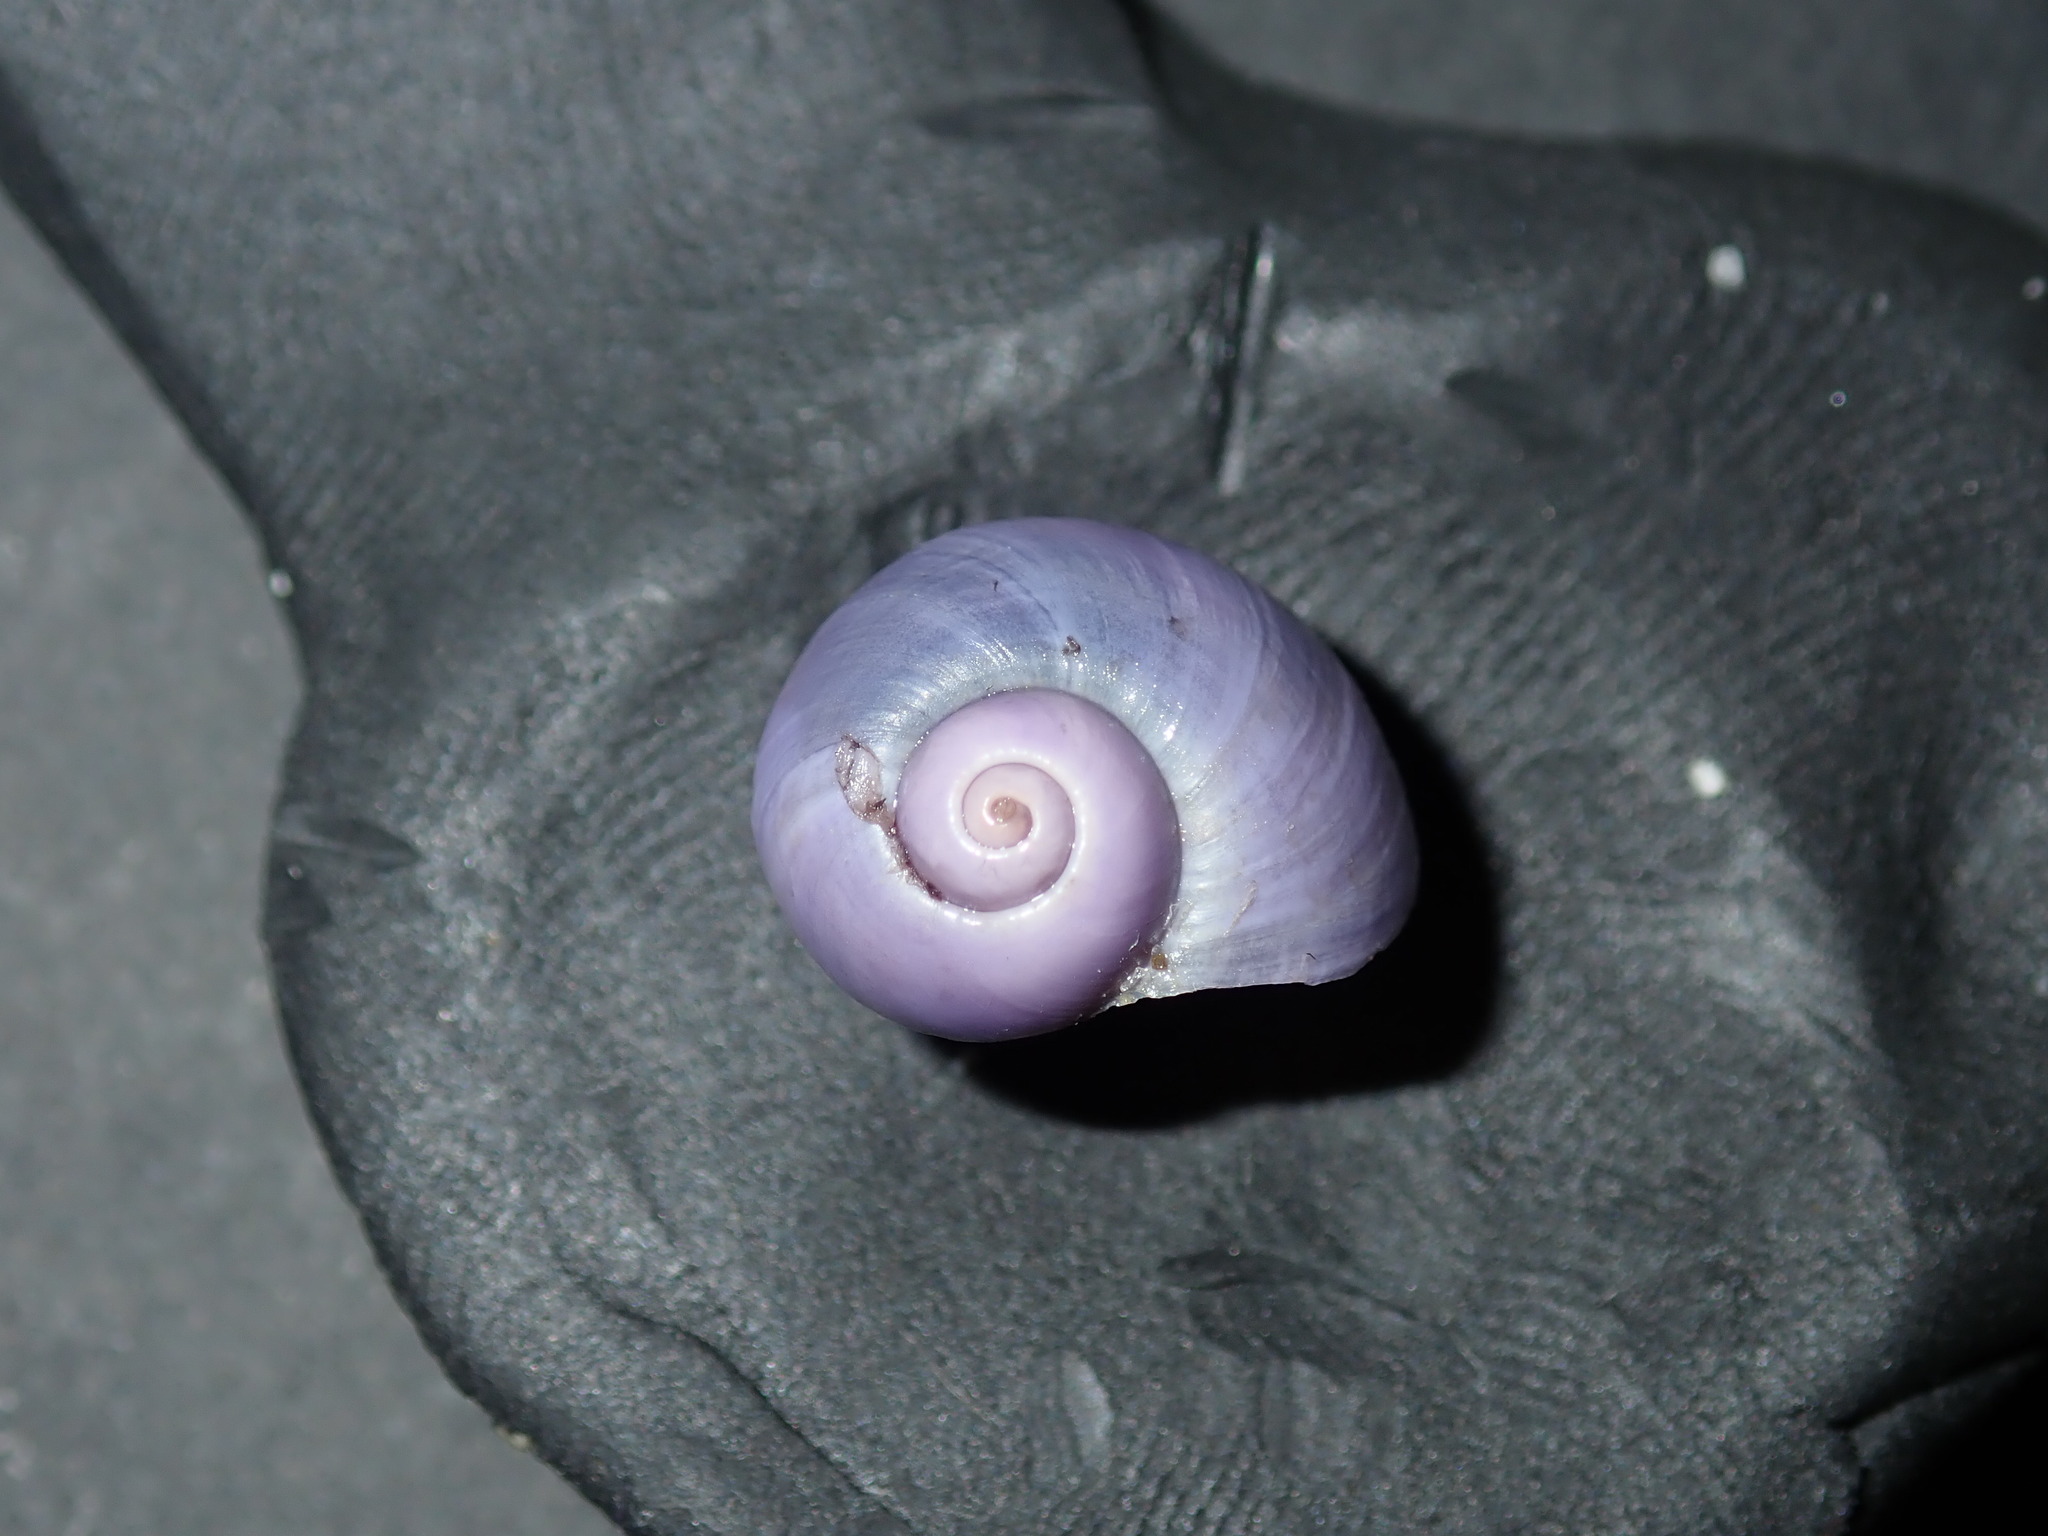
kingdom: Animalia
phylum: Mollusca
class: Gastropoda
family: Epitoniidae
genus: Janthina
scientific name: Janthina globosa
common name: Elongate janthina
